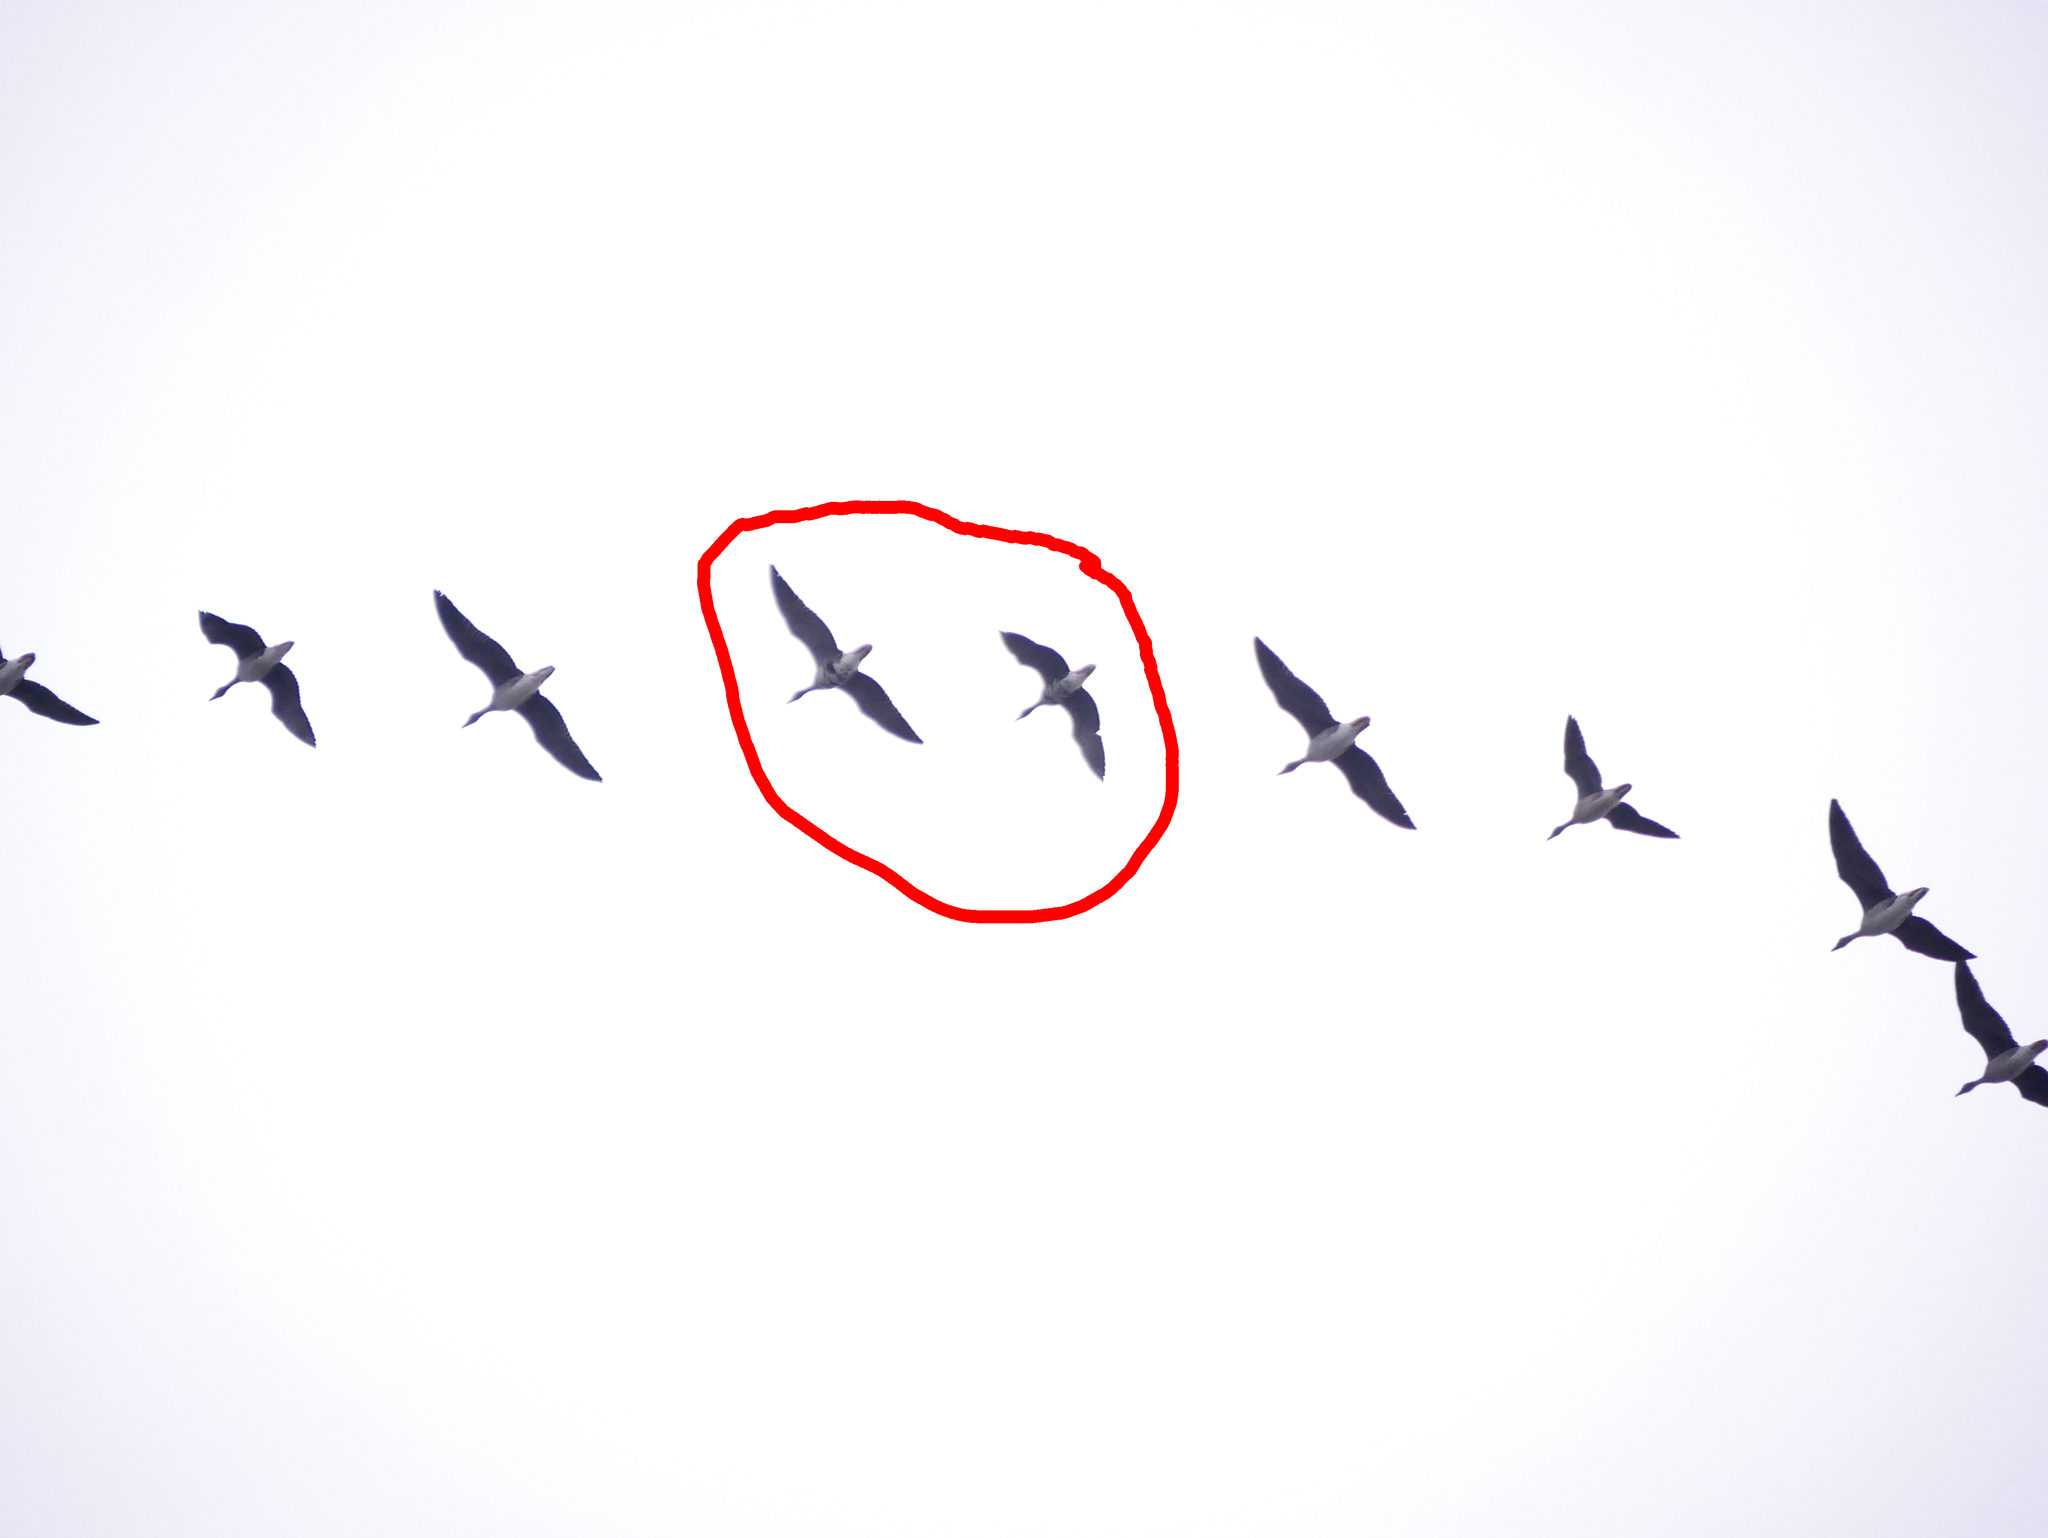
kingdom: Animalia
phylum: Chordata
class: Aves
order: Anseriformes
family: Anatidae
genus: Anser
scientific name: Anser albifrons
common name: Greater white-fronted goose
